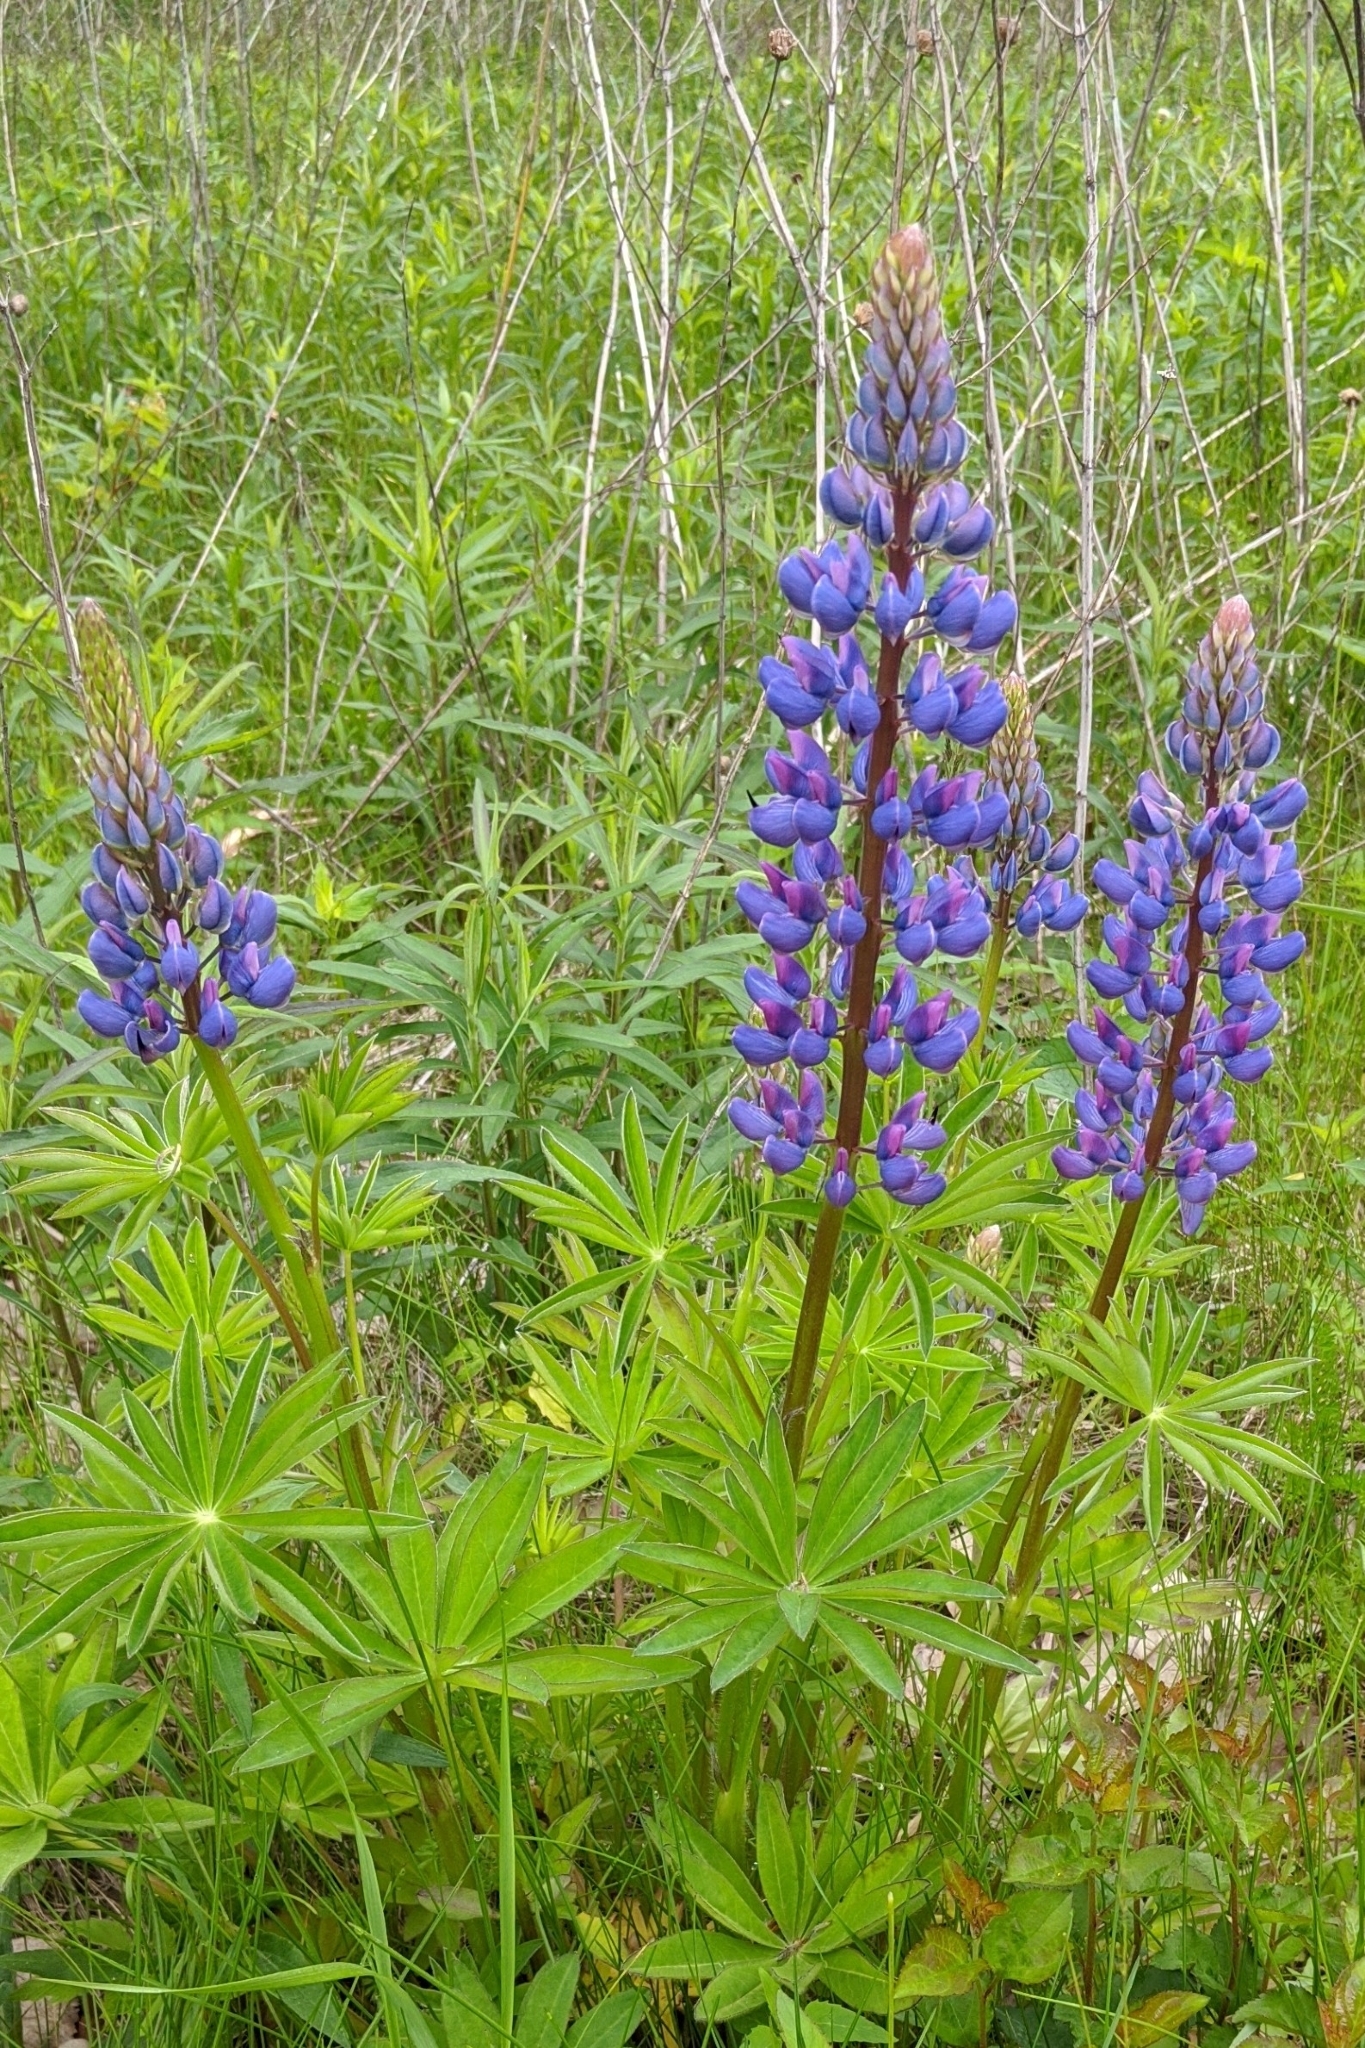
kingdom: Plantae
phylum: Tracheophyta
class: Magnoliopsida
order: Fabales
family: Fabaceae
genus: Lupinus
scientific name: Lupinus polyphyllus
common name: Garden lupin
